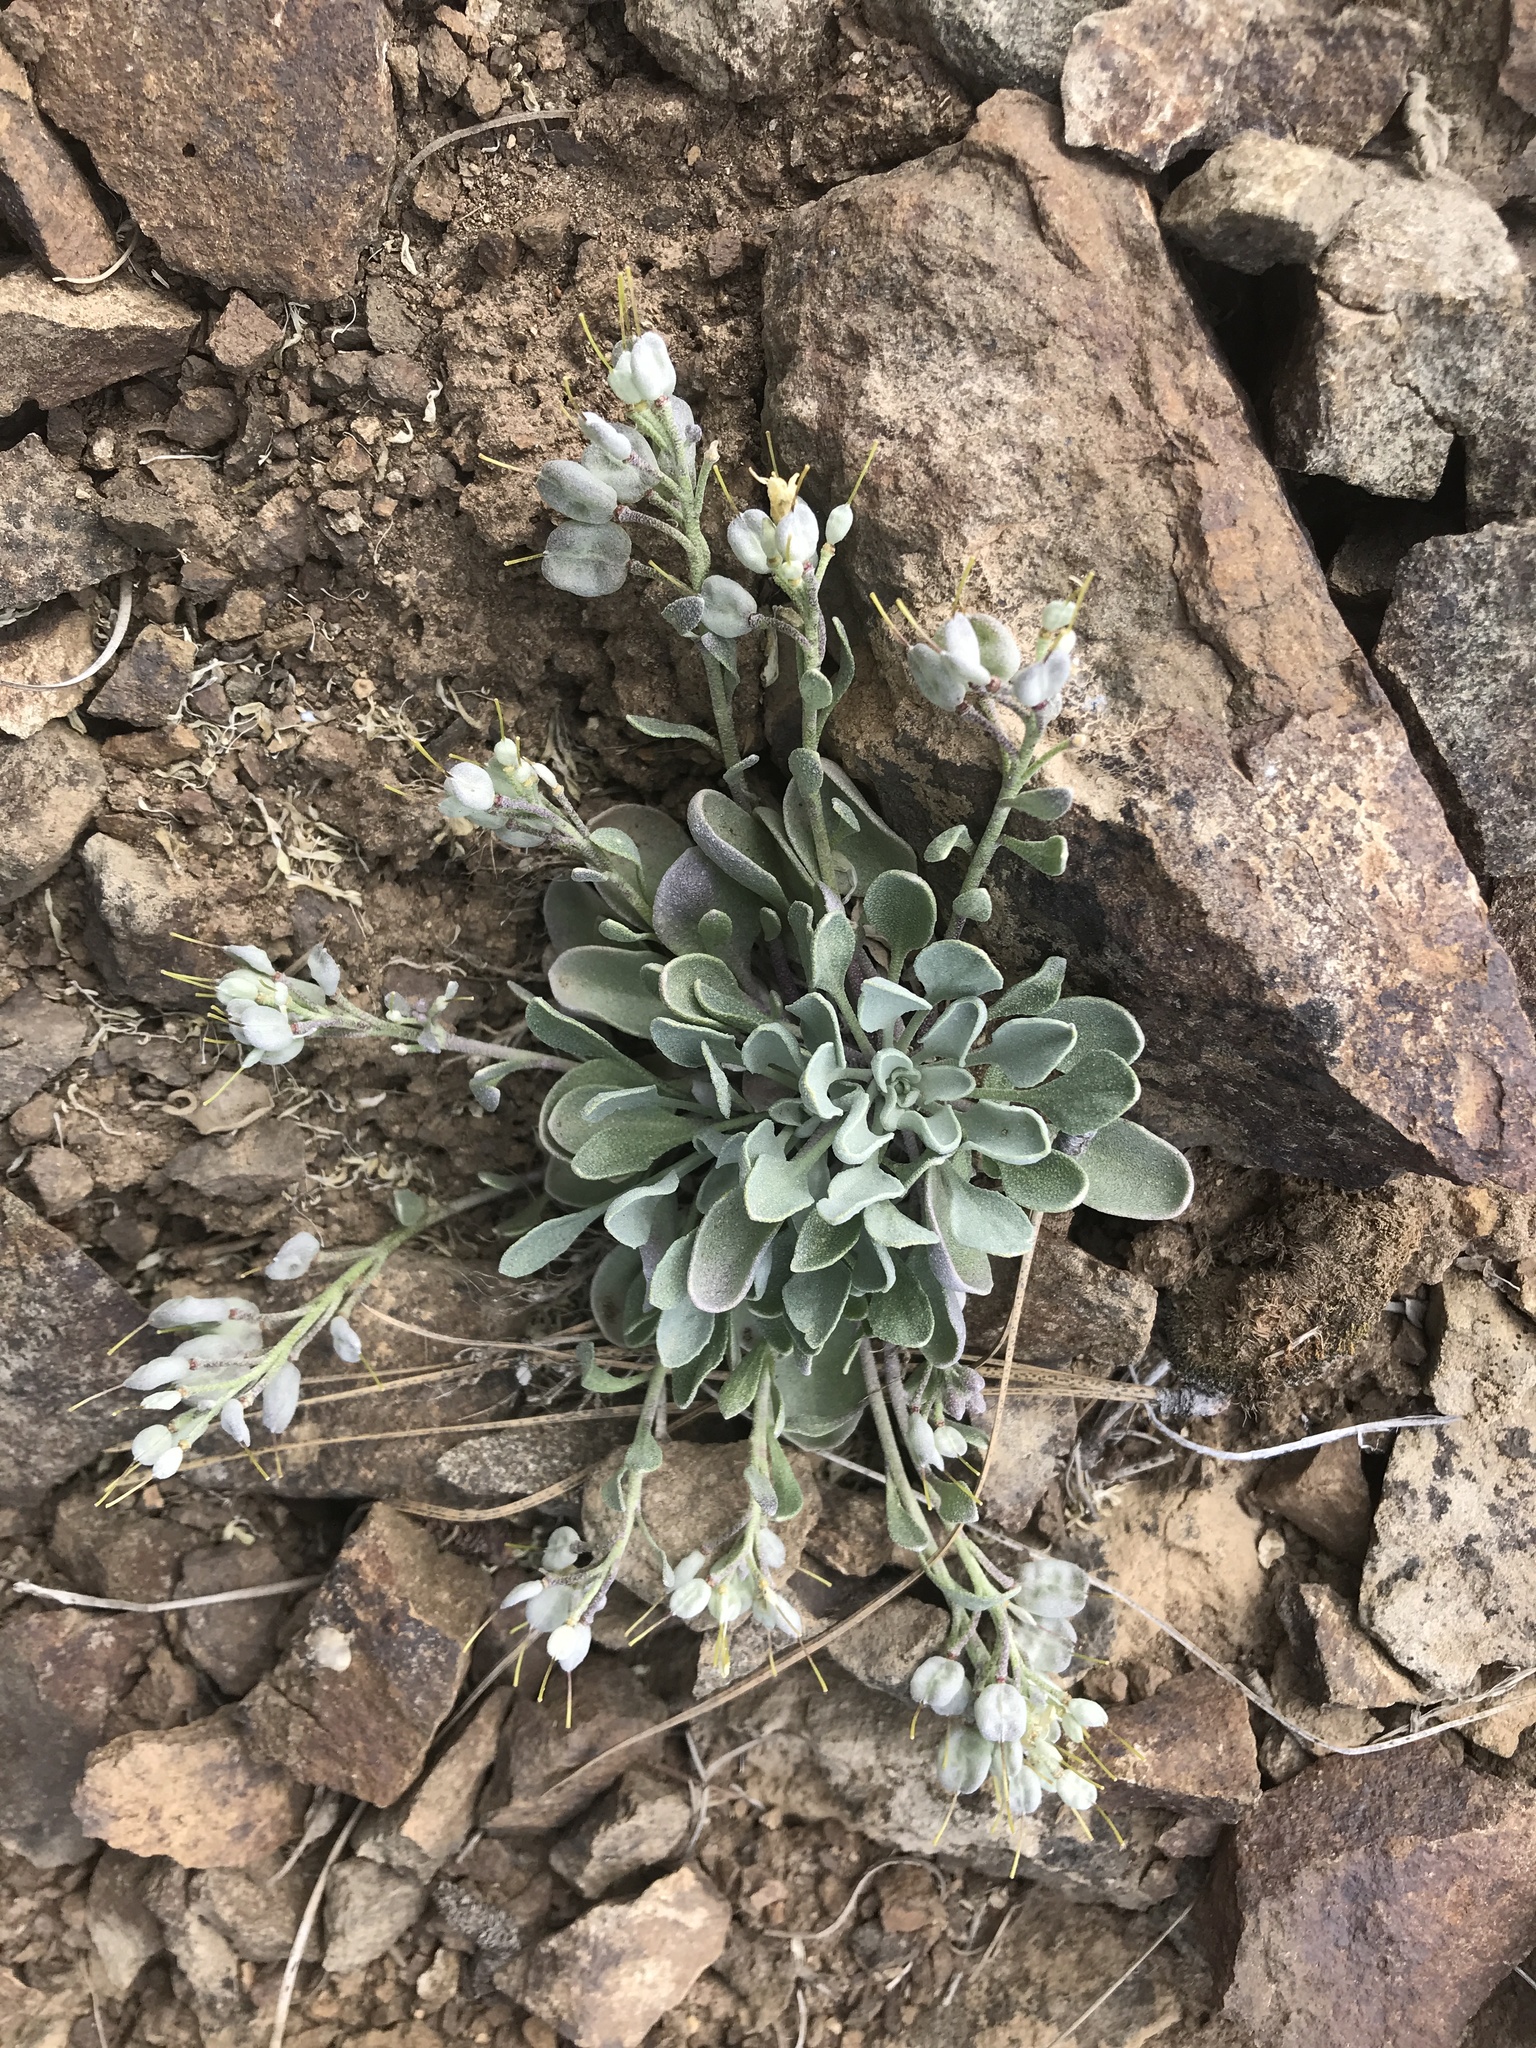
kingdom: Plantae
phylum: Tracheophyta
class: Magnoliopsida
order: Brassicales
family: Brassicaceae
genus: Physaria
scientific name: Physaria alpestris
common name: Washington twinpod
